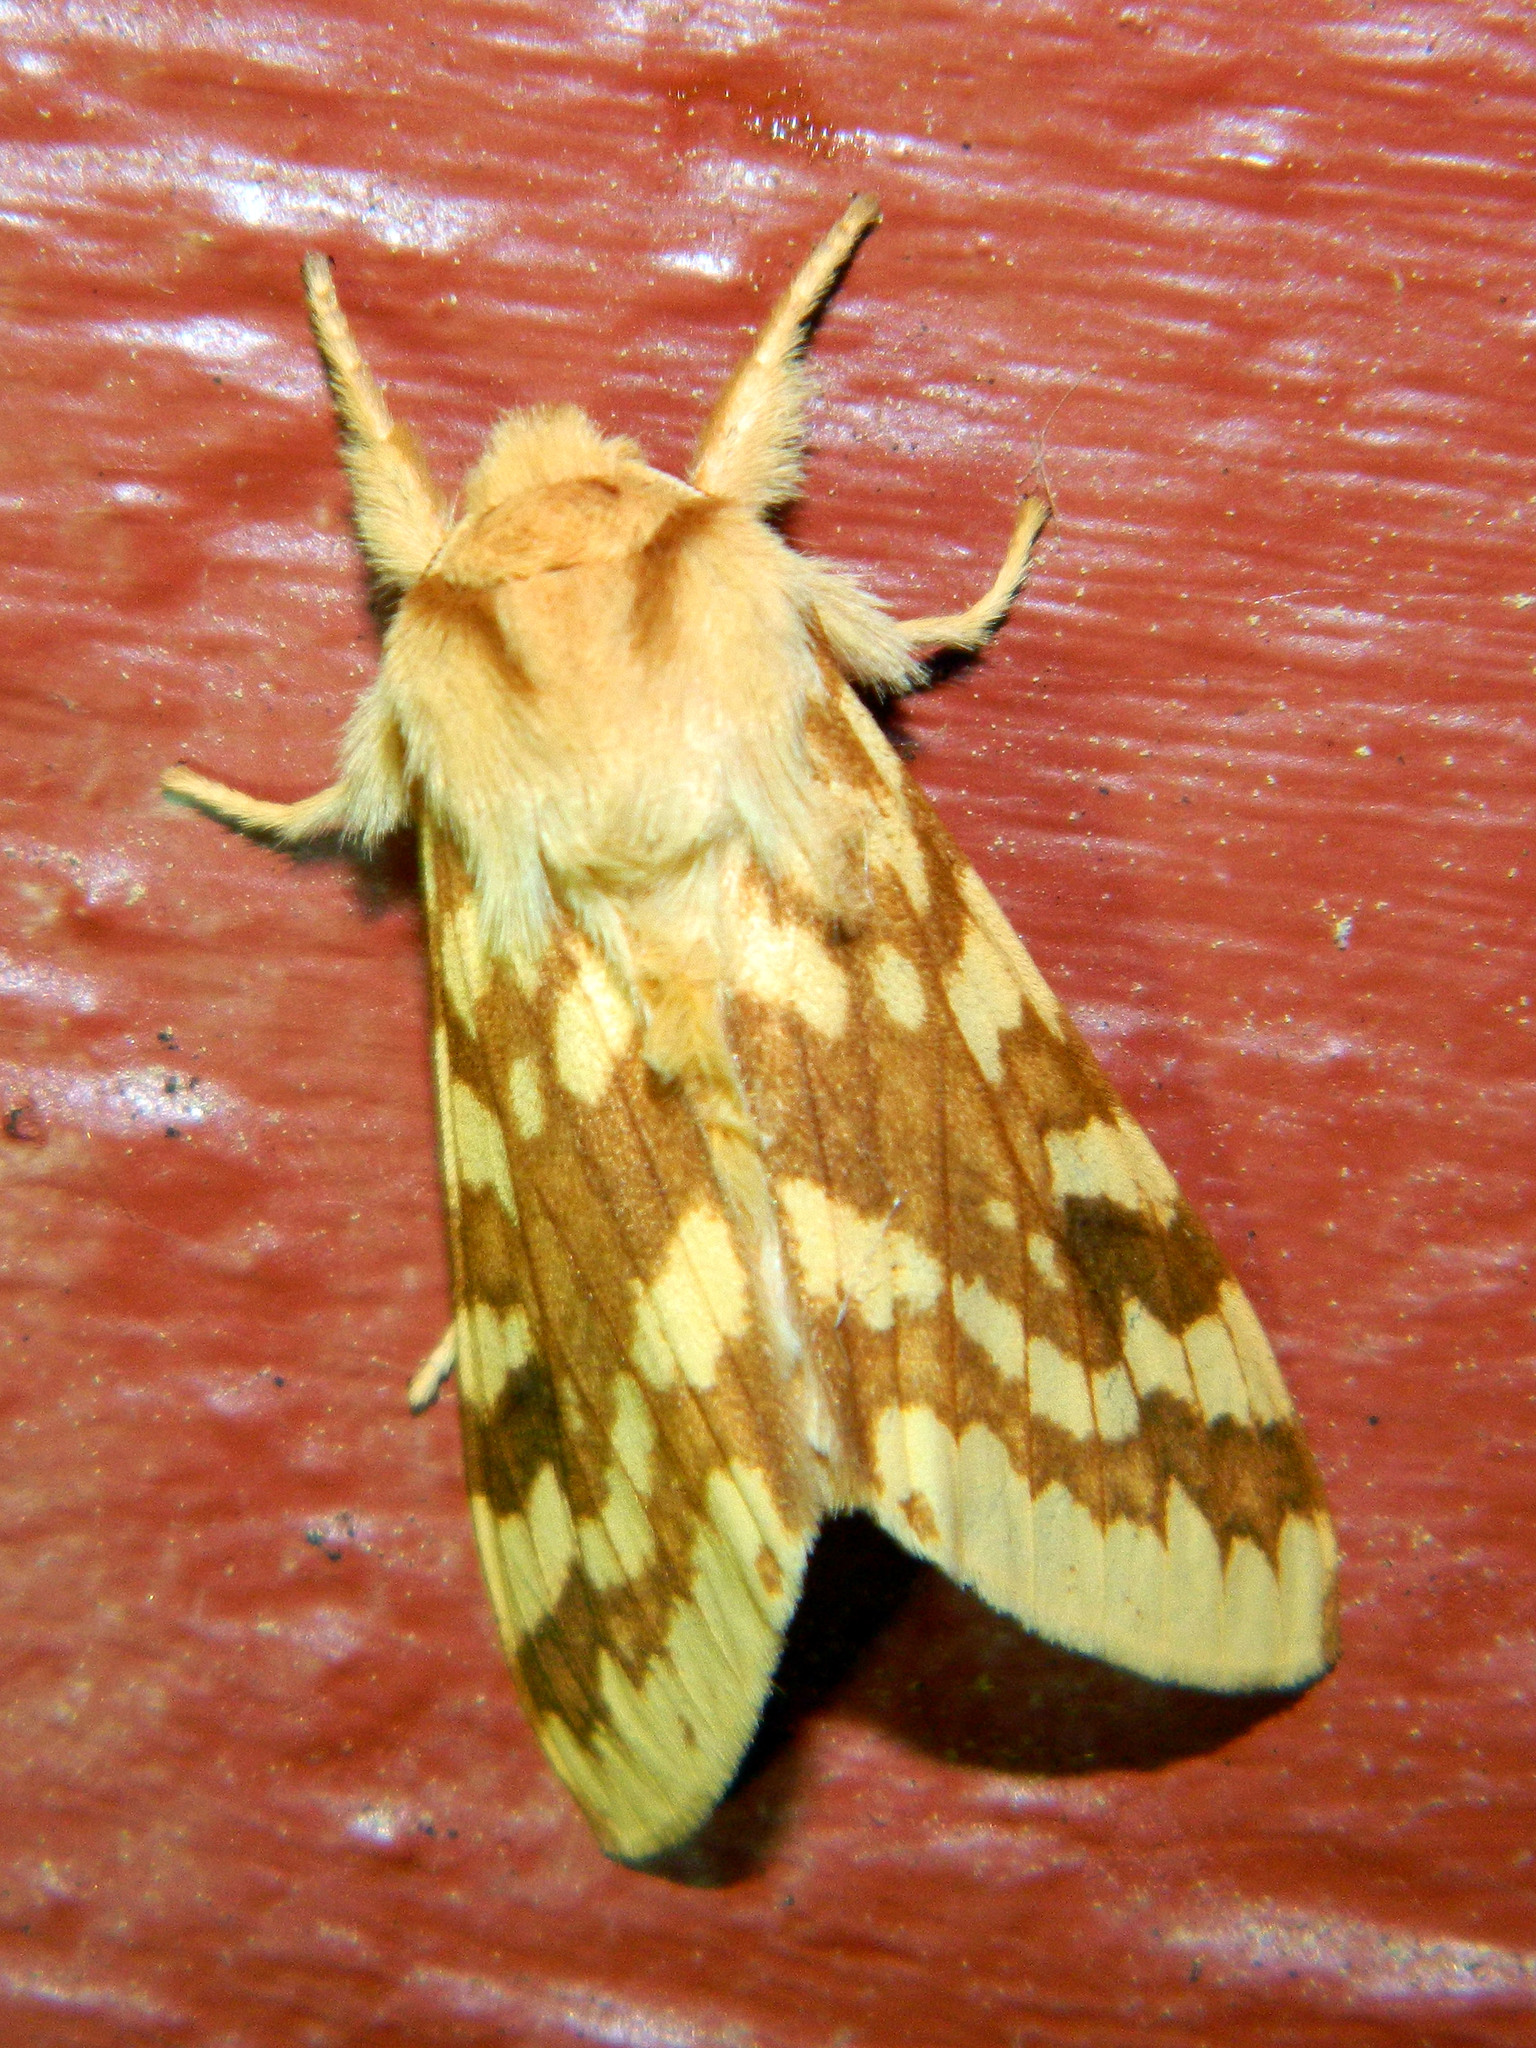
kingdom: Animalia
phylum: Arthropoda
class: Insecta
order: Lepidoptera
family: Erebidae
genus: Lophocampa
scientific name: Lophocampa maculata
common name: Spotted tussock moth
